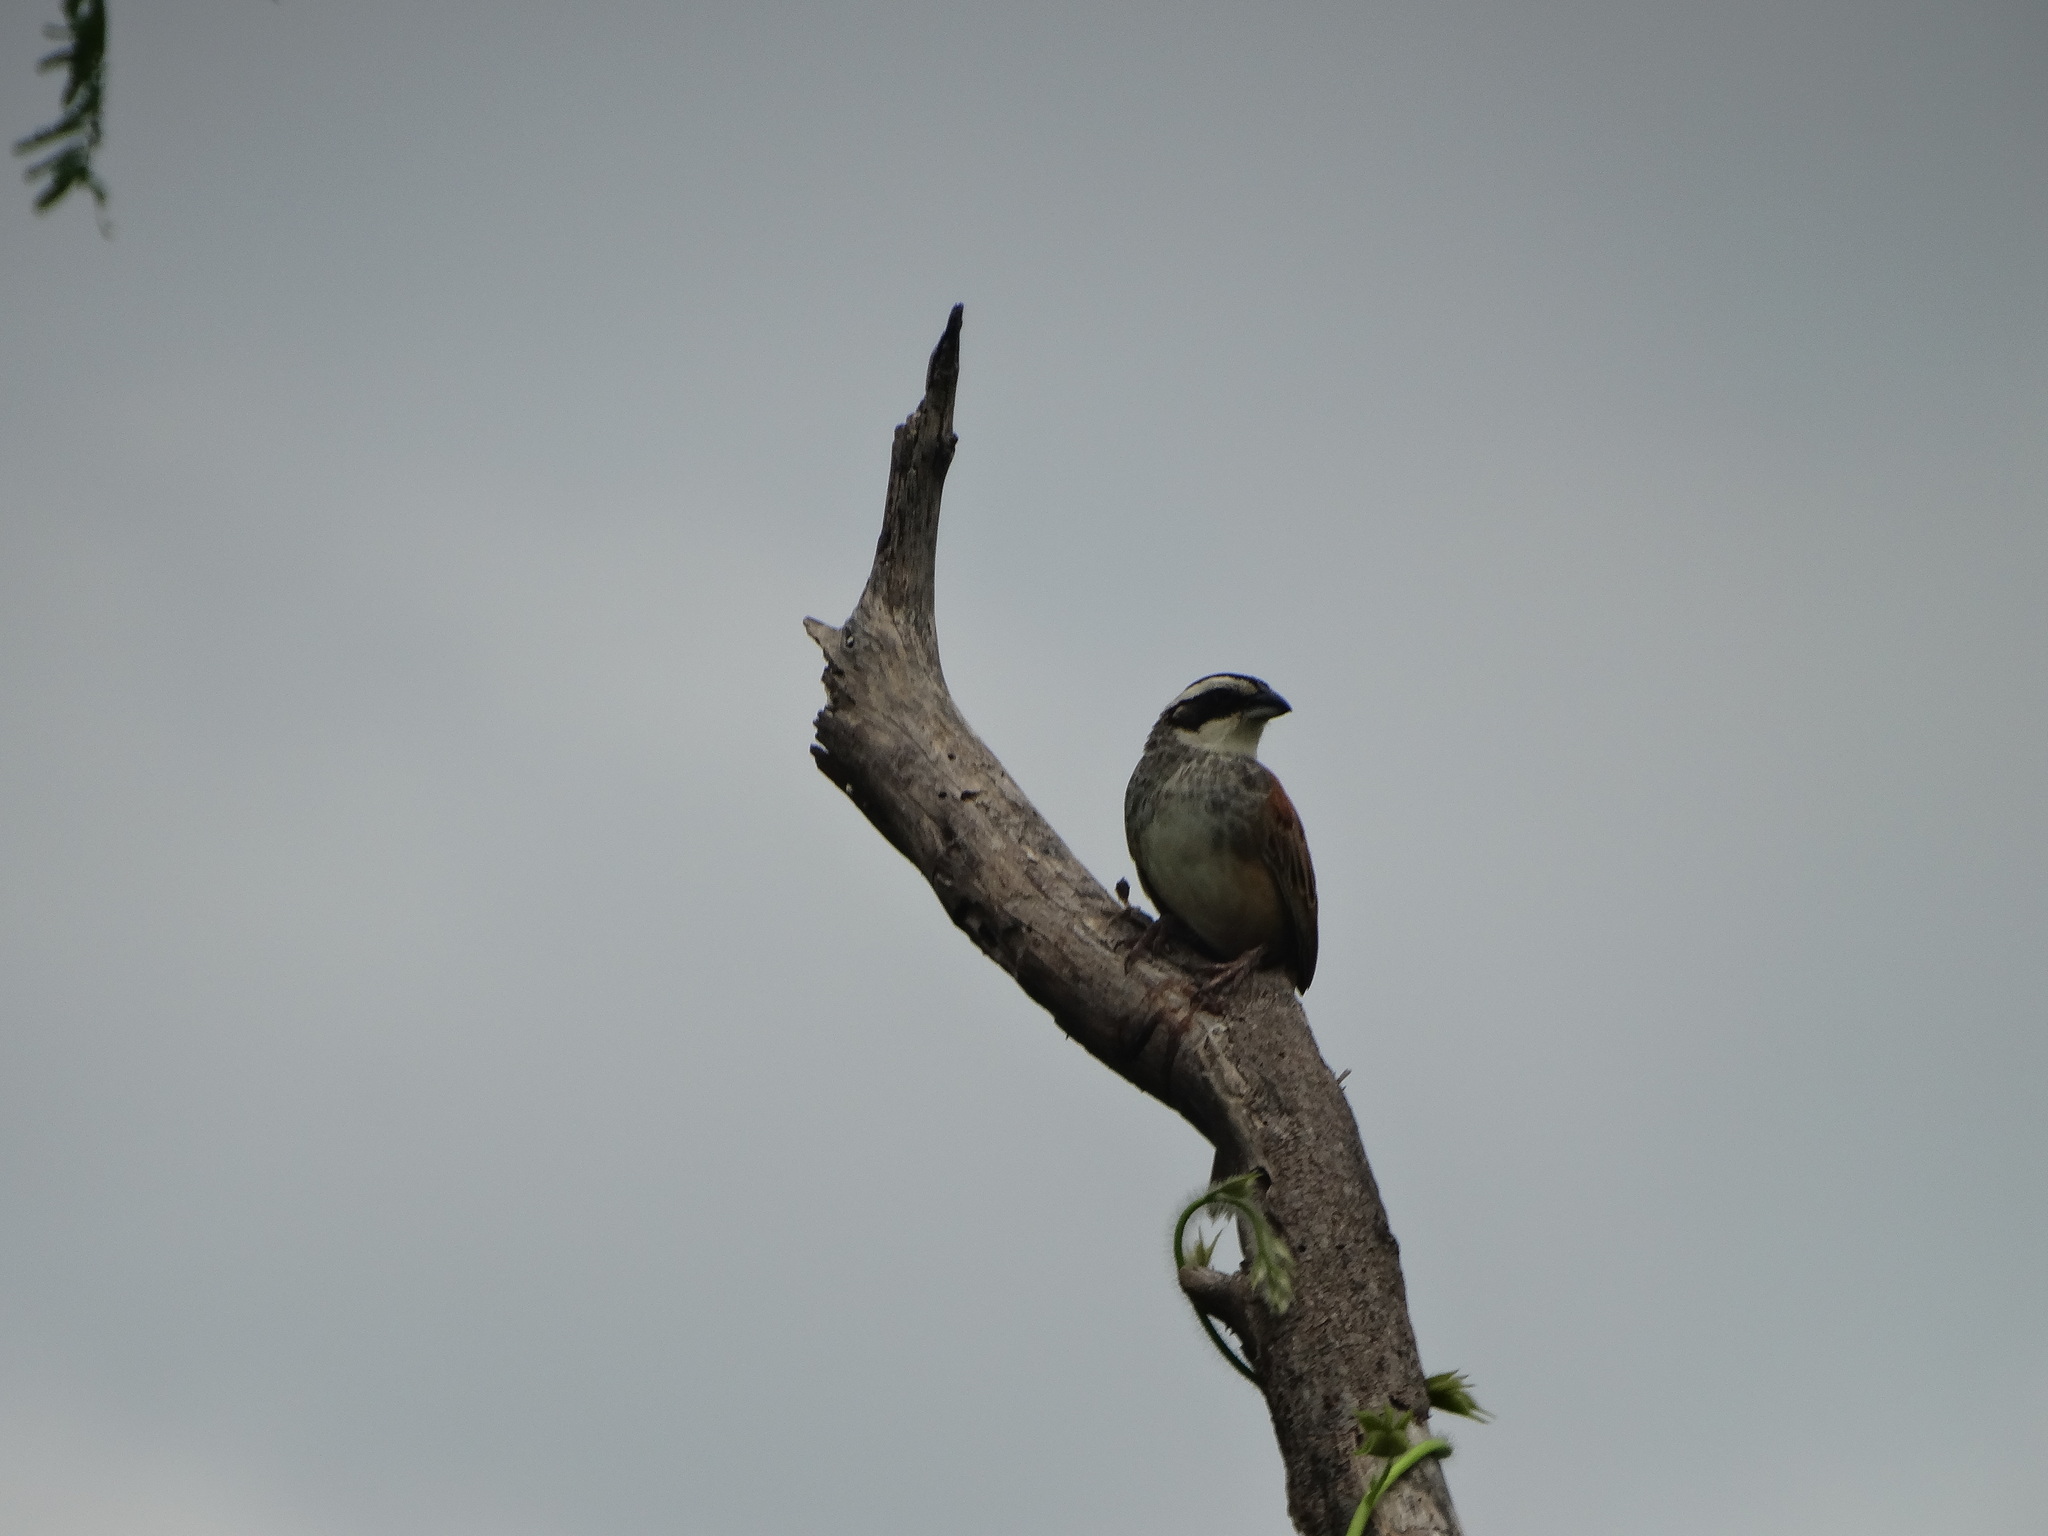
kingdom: Animalia
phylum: Chordata
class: Aves
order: Passeriformes
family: Passerellidae
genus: Peucaea
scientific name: Peucaea ruficauda
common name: Stripe-headed sparrow
